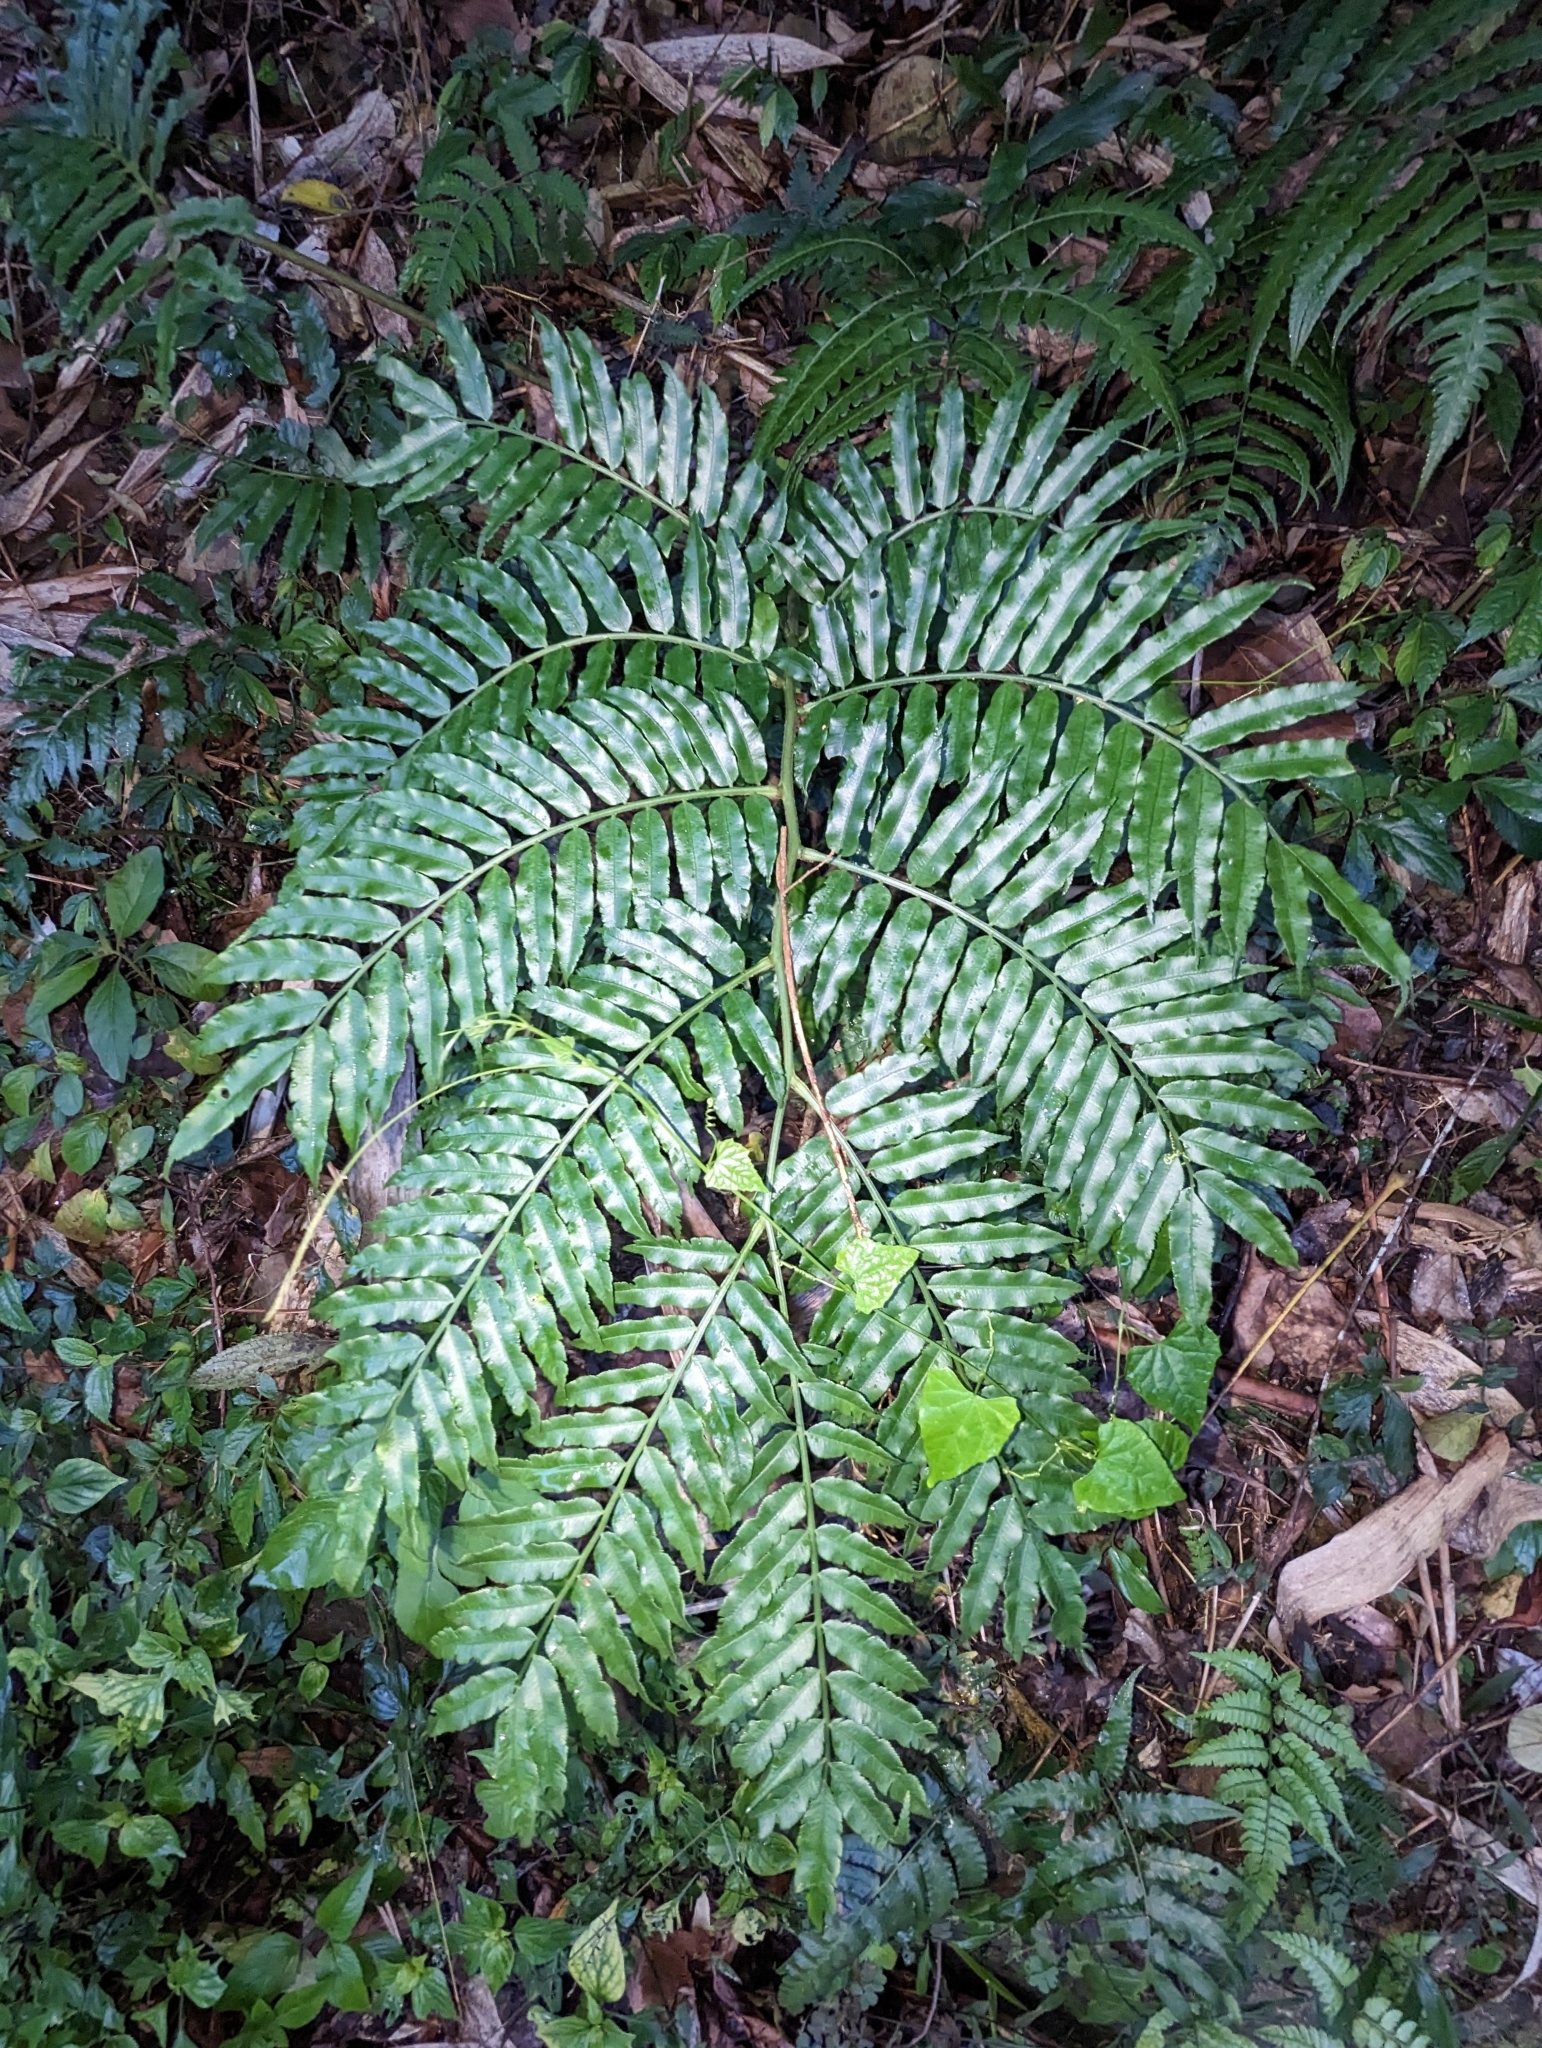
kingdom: Plantae
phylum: Tracheophyta
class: Polypodiopsida
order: Marattiales
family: Marattiaceae
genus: Angiopteris
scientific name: Angiopteris lygodiifolia
